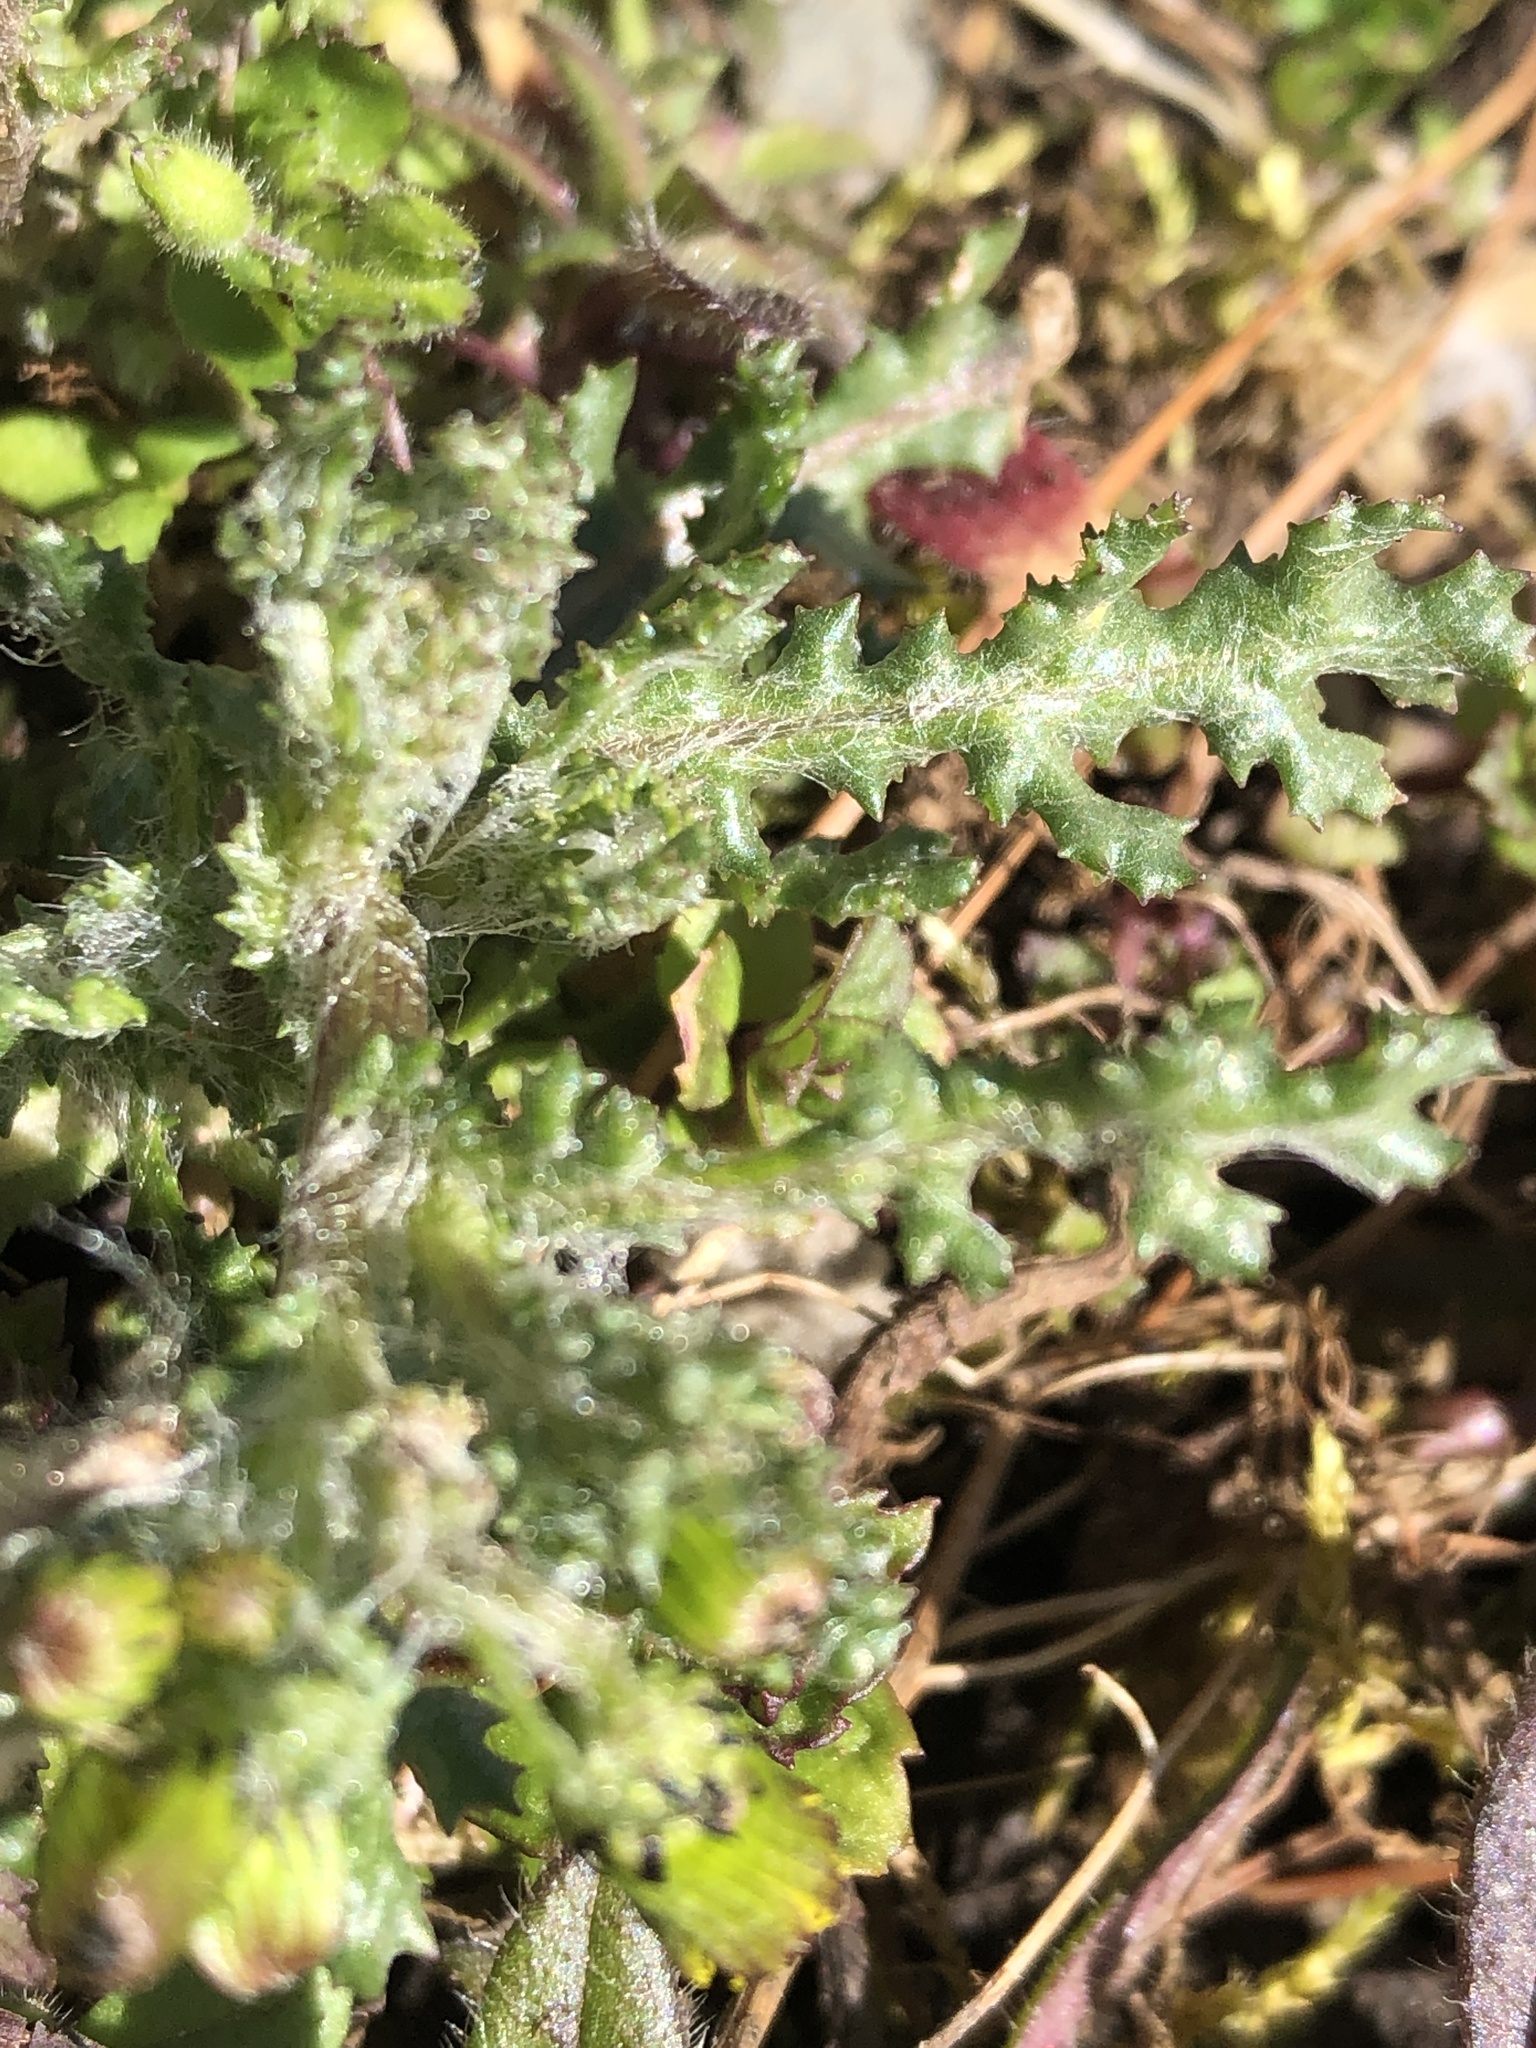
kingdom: Plantae
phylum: Tracheophyta
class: Magnoliopsida
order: Asterales
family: Asteraceae
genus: Senecio
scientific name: Senecio vulgaris
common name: Old-man-in-the-spring
